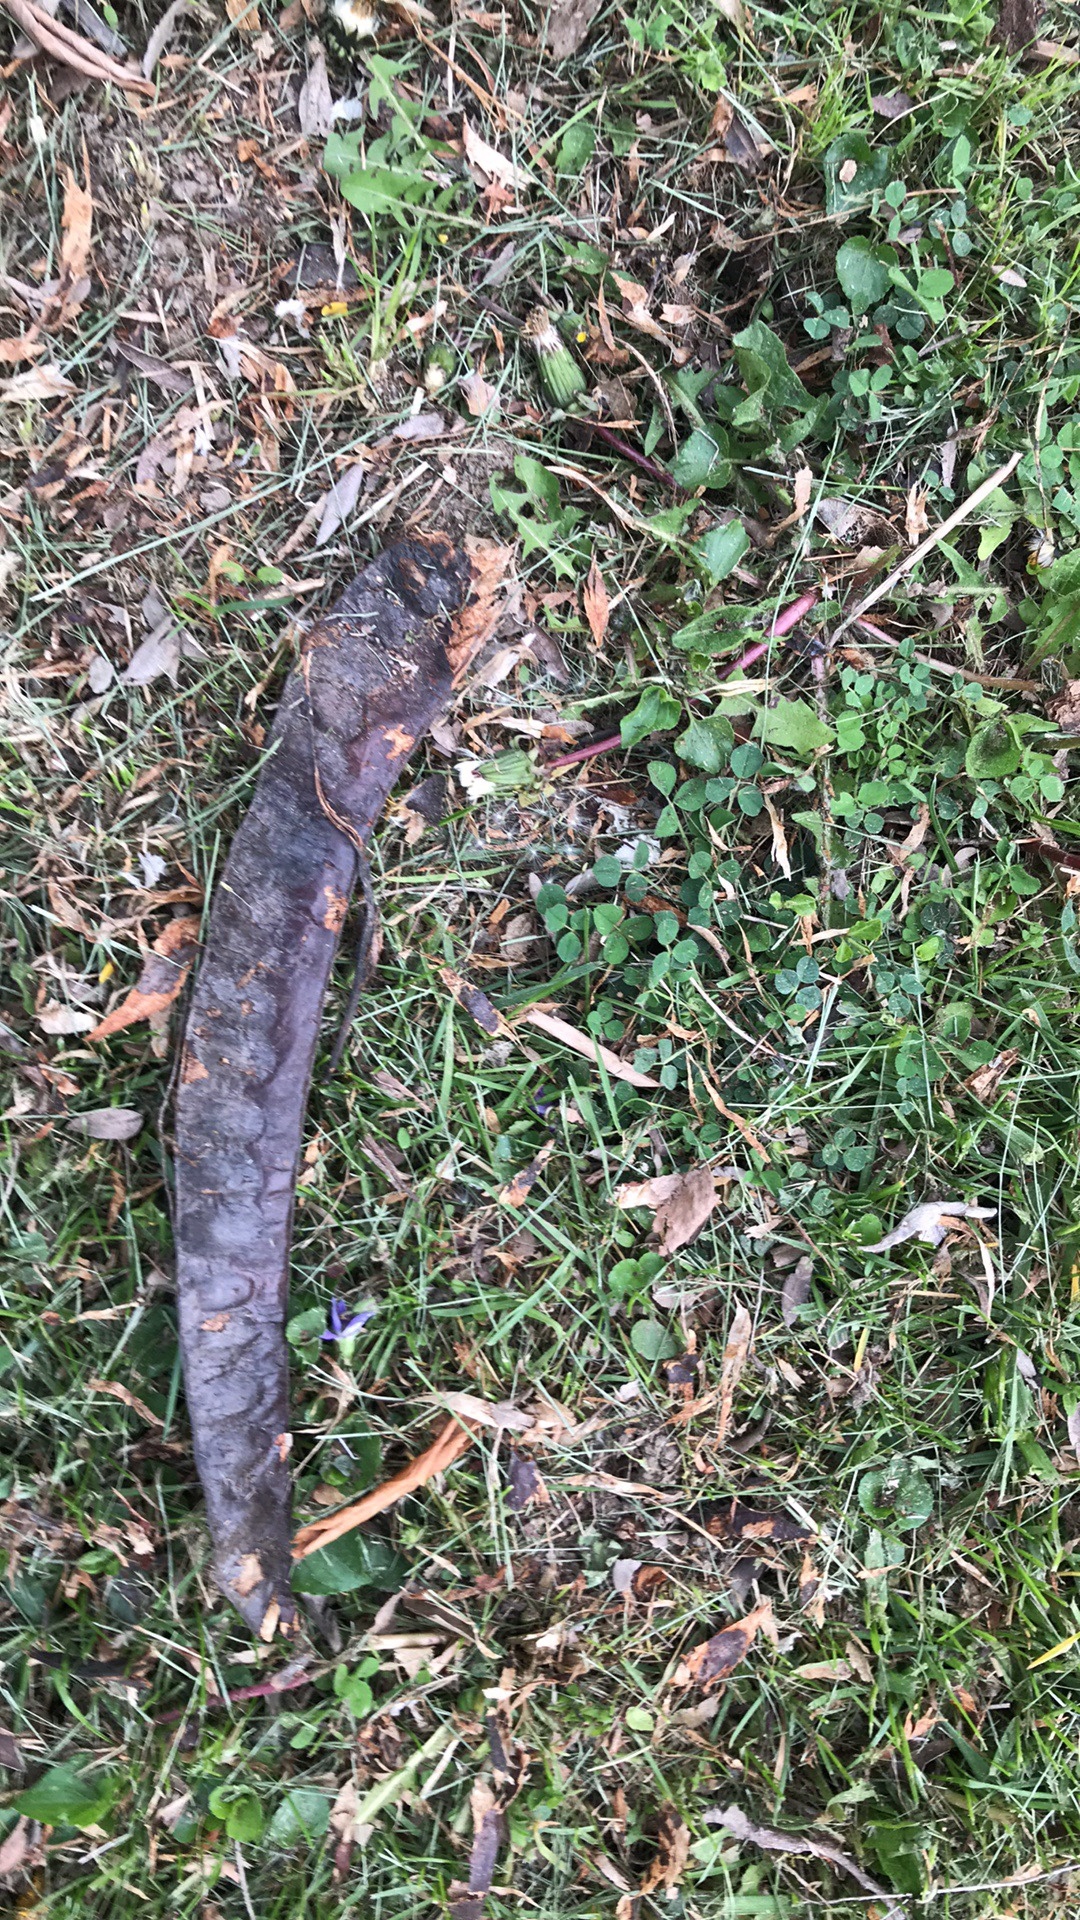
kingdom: Plantae
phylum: Tracheophyta
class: Magnoliopsida
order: Fabales
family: Fabaceae
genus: Gleditsia
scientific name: Gleditsia triacanthos
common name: Common honeylocust
